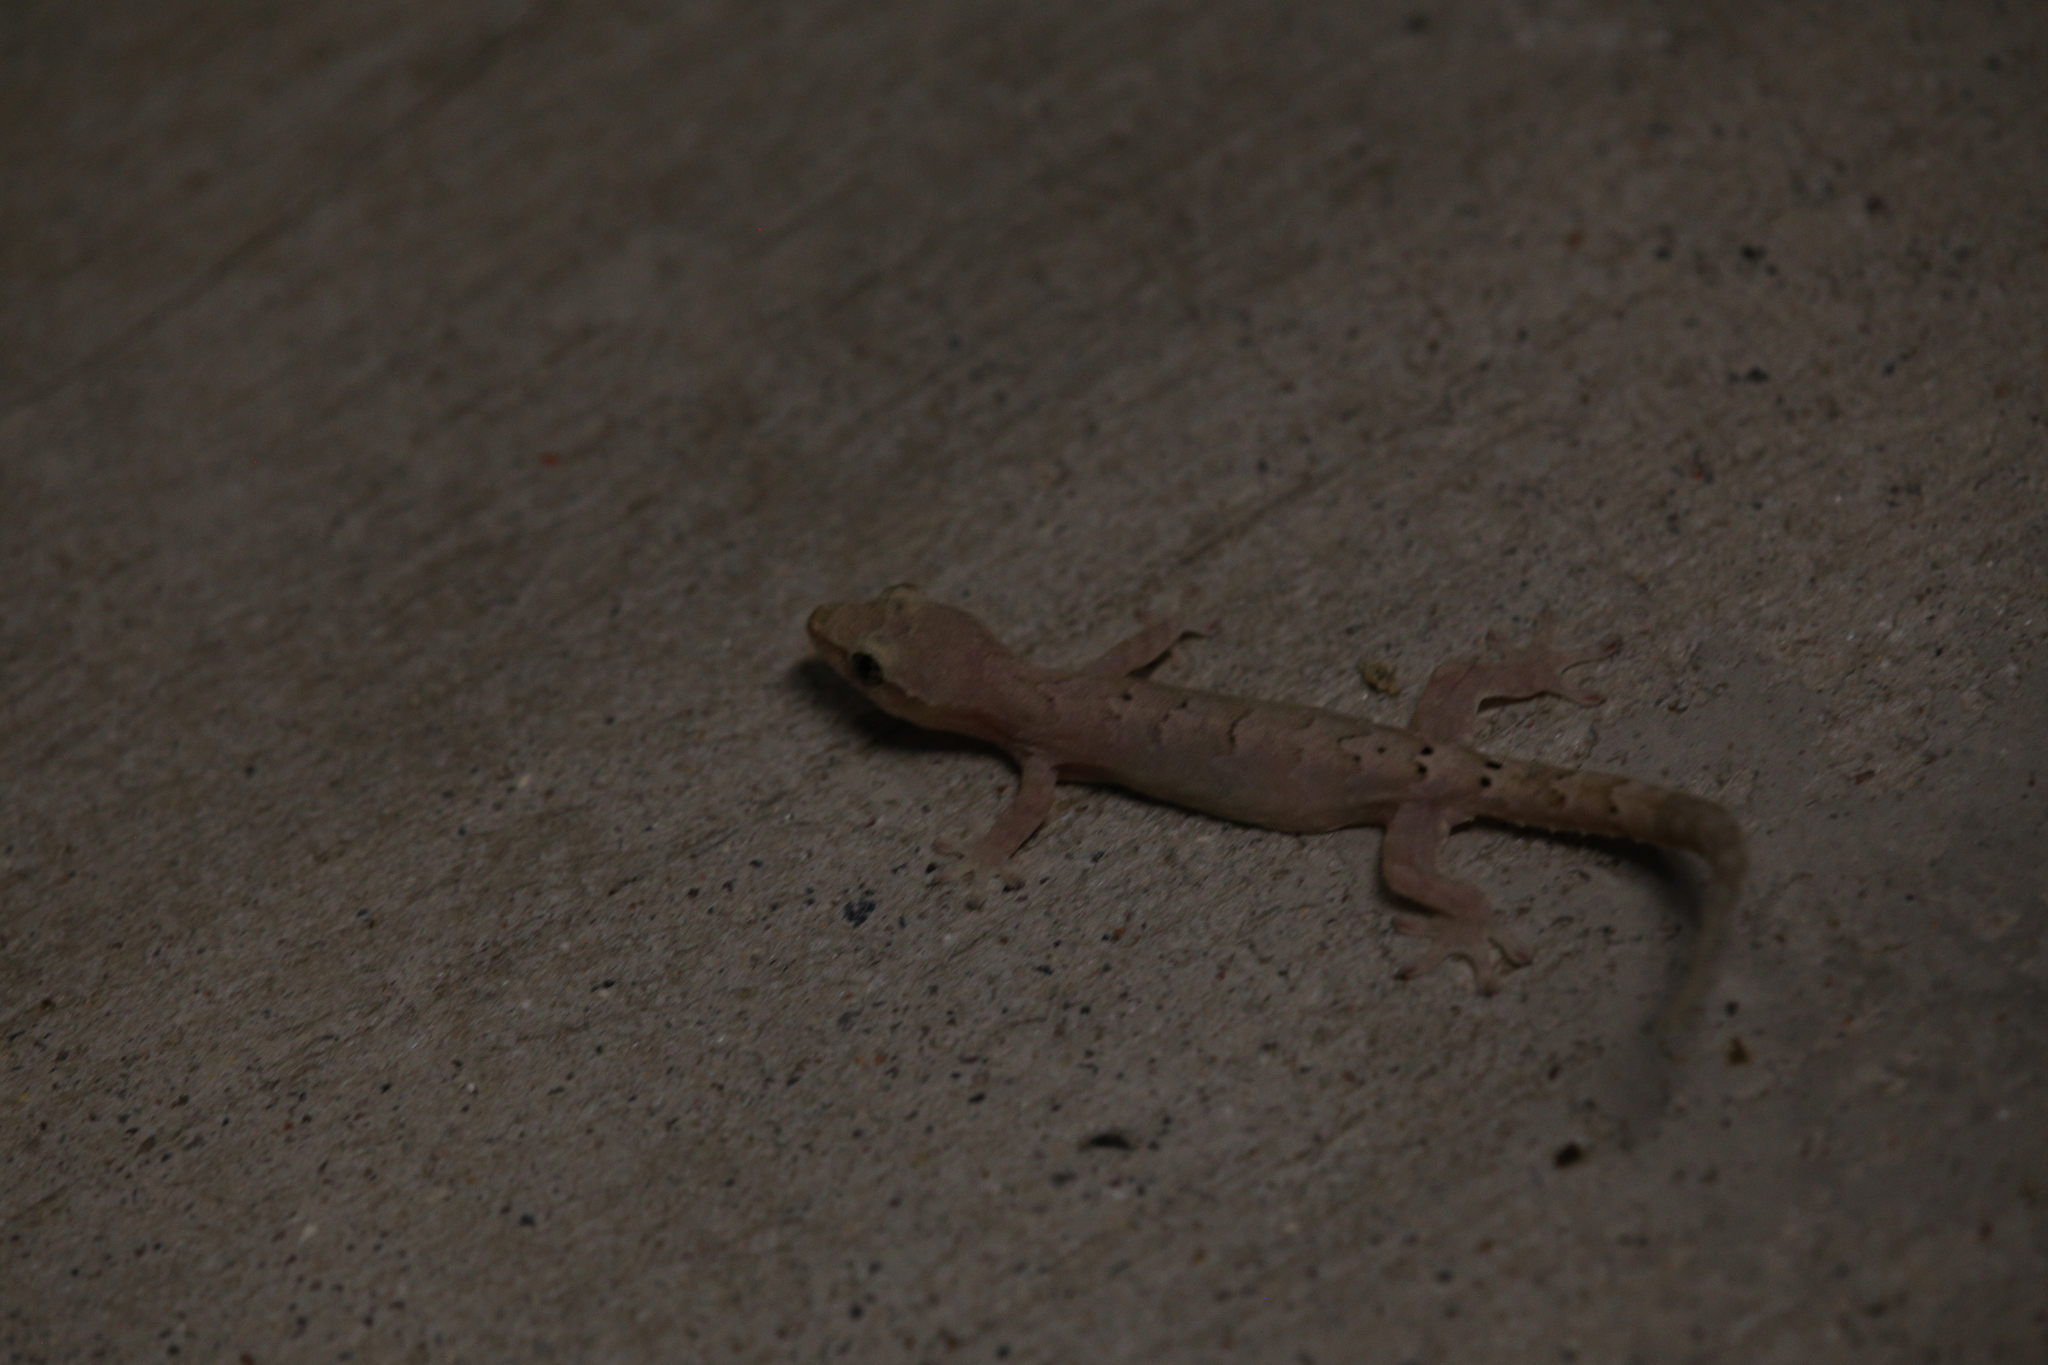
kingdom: Animalia
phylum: Chordata
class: Squamata
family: Gekkonidae
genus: Lepidodactylus
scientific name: Lepidodactylus lugubris
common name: Mourning gecko
